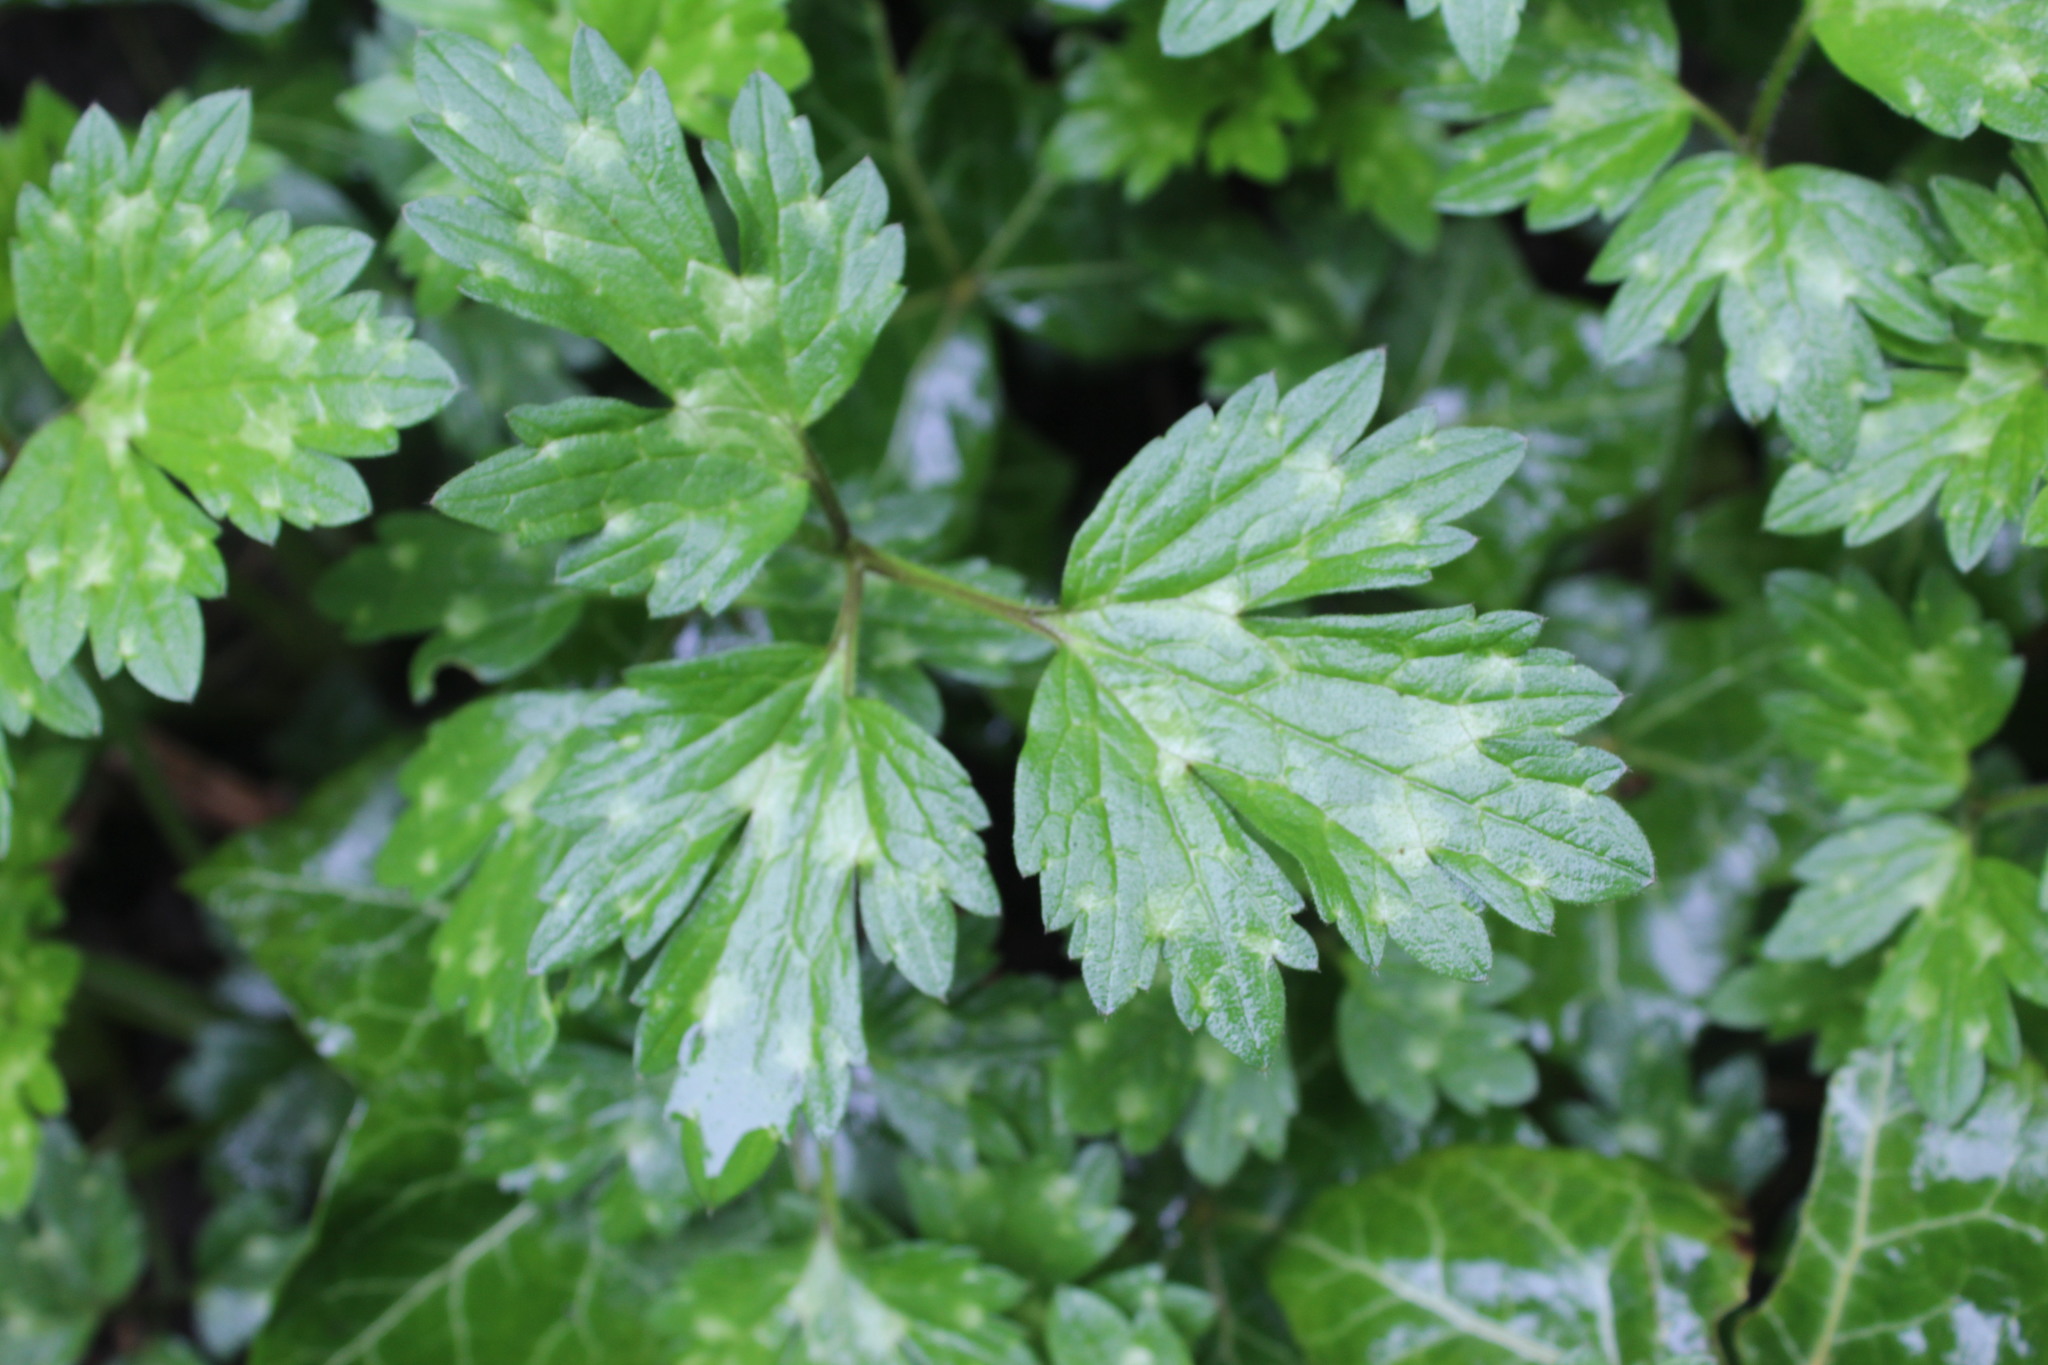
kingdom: Plantae
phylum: Tracheophyta
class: Magnoliopsida
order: Ranunculales
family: Ranunculaceae
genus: Ranunculus
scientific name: Ranunculus repens
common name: Creeping buttercup
